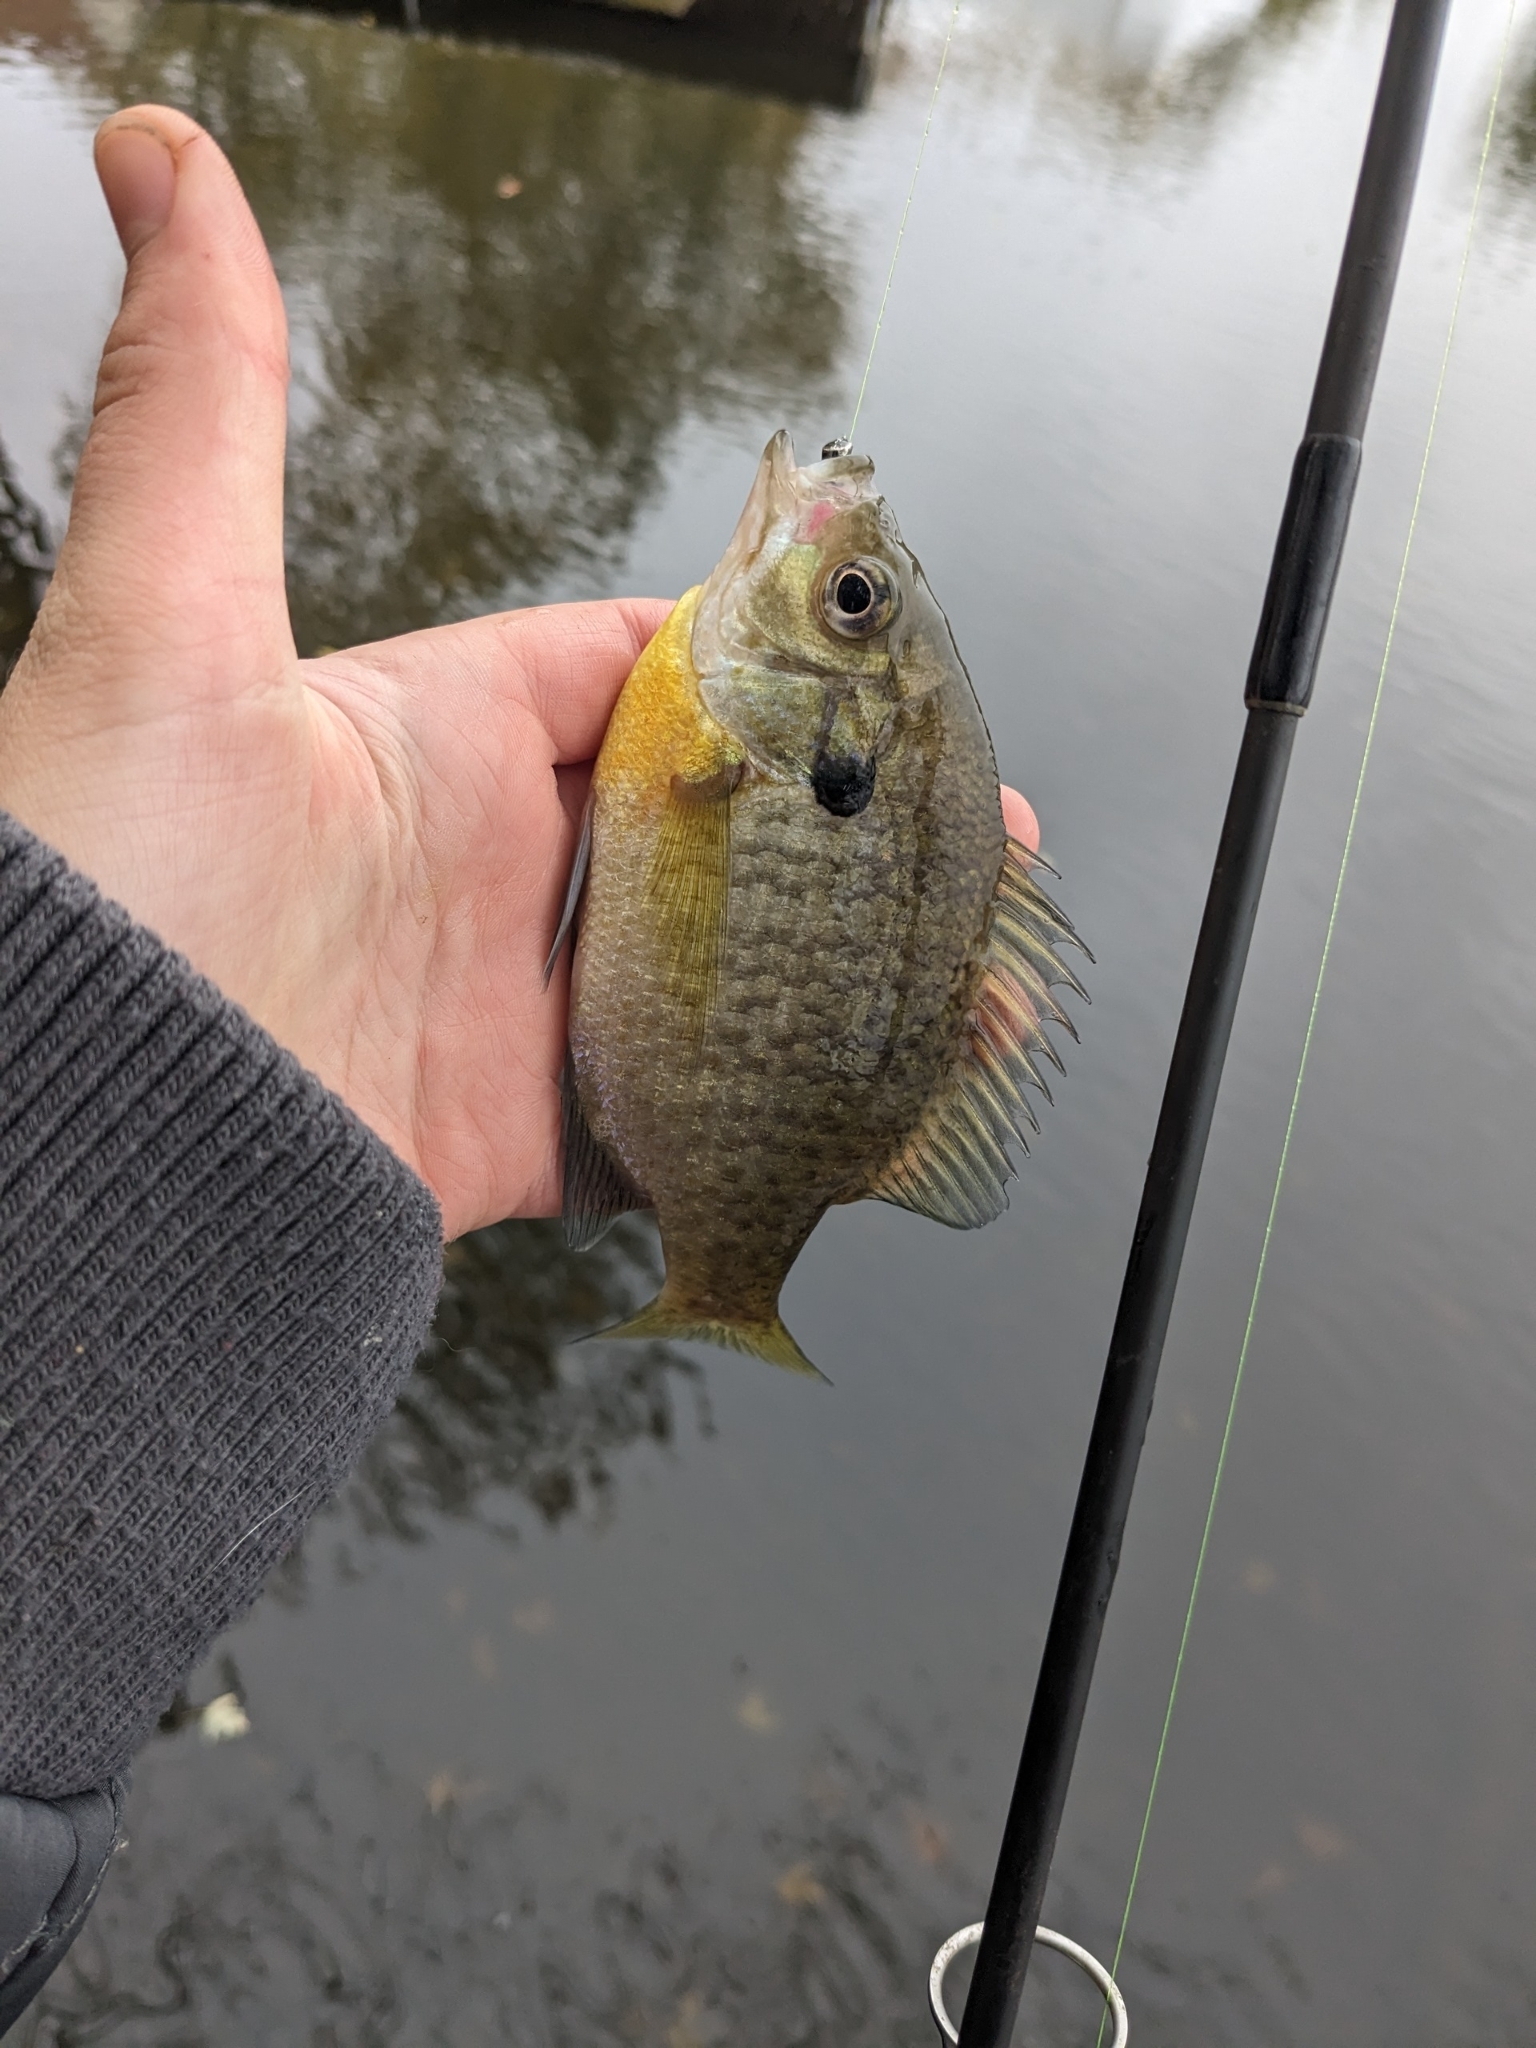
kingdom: Animalia
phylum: Chordata
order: Perciformes
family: Centrarchidae
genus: Lepomis
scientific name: Lepomis macrochirus
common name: Bluegill
